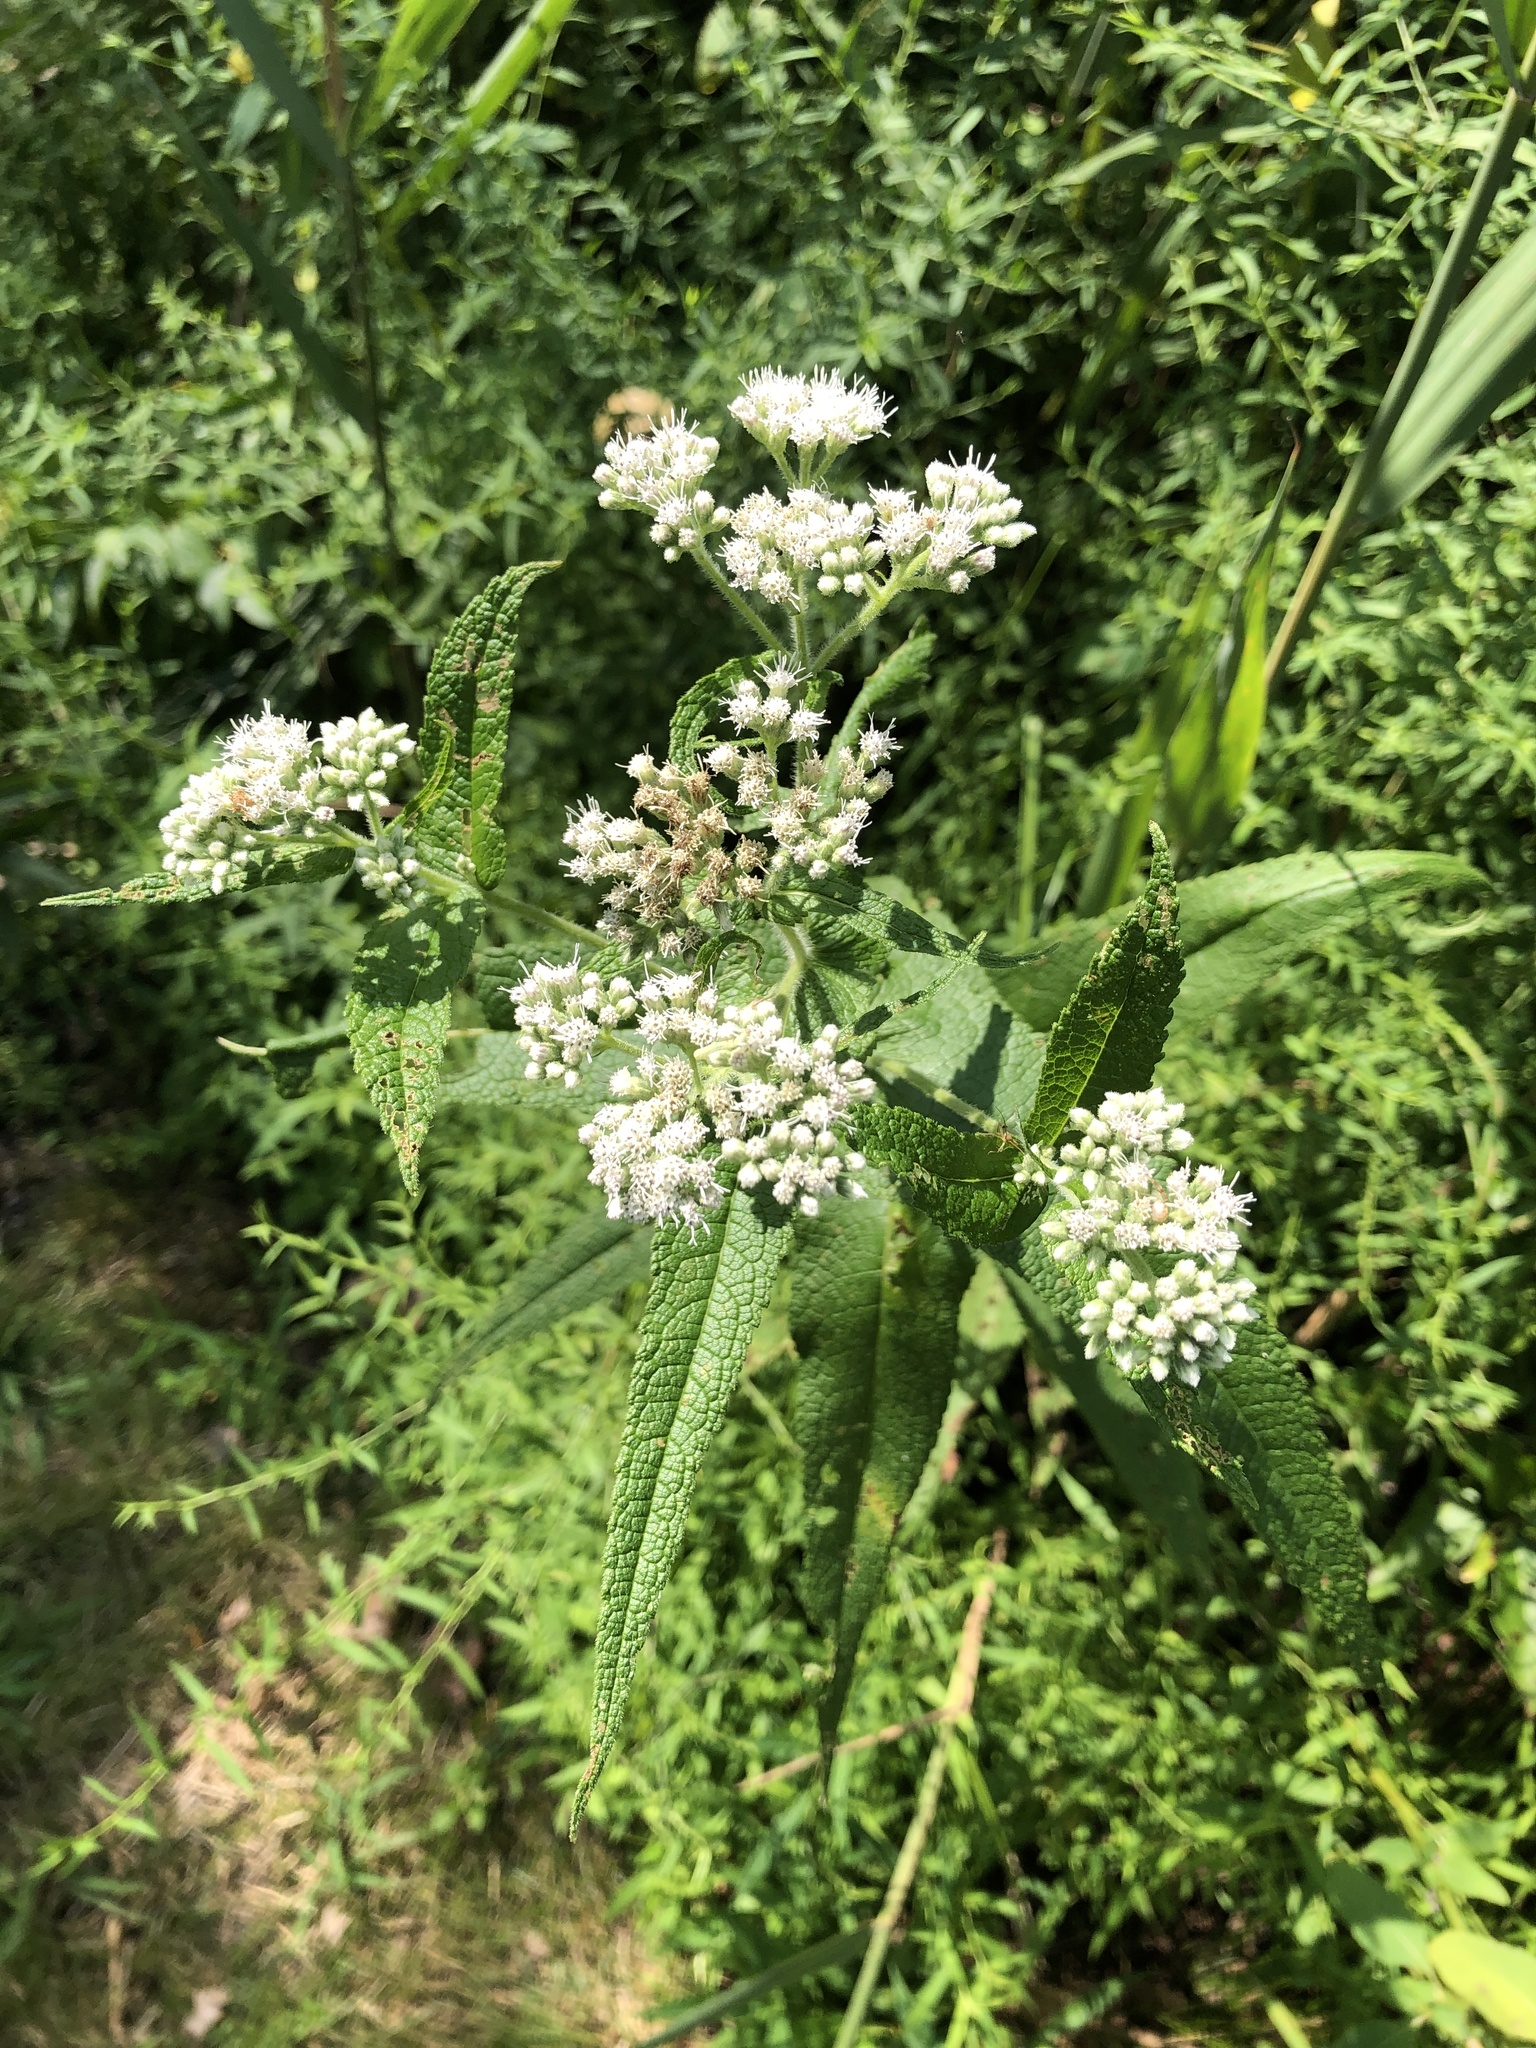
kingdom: Plantae
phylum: Tracheophyta
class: Magnoliopsida
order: Asterales
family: Asteraceae
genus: Eupatorium
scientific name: Eupatorium perfoliatum
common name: Boneset
